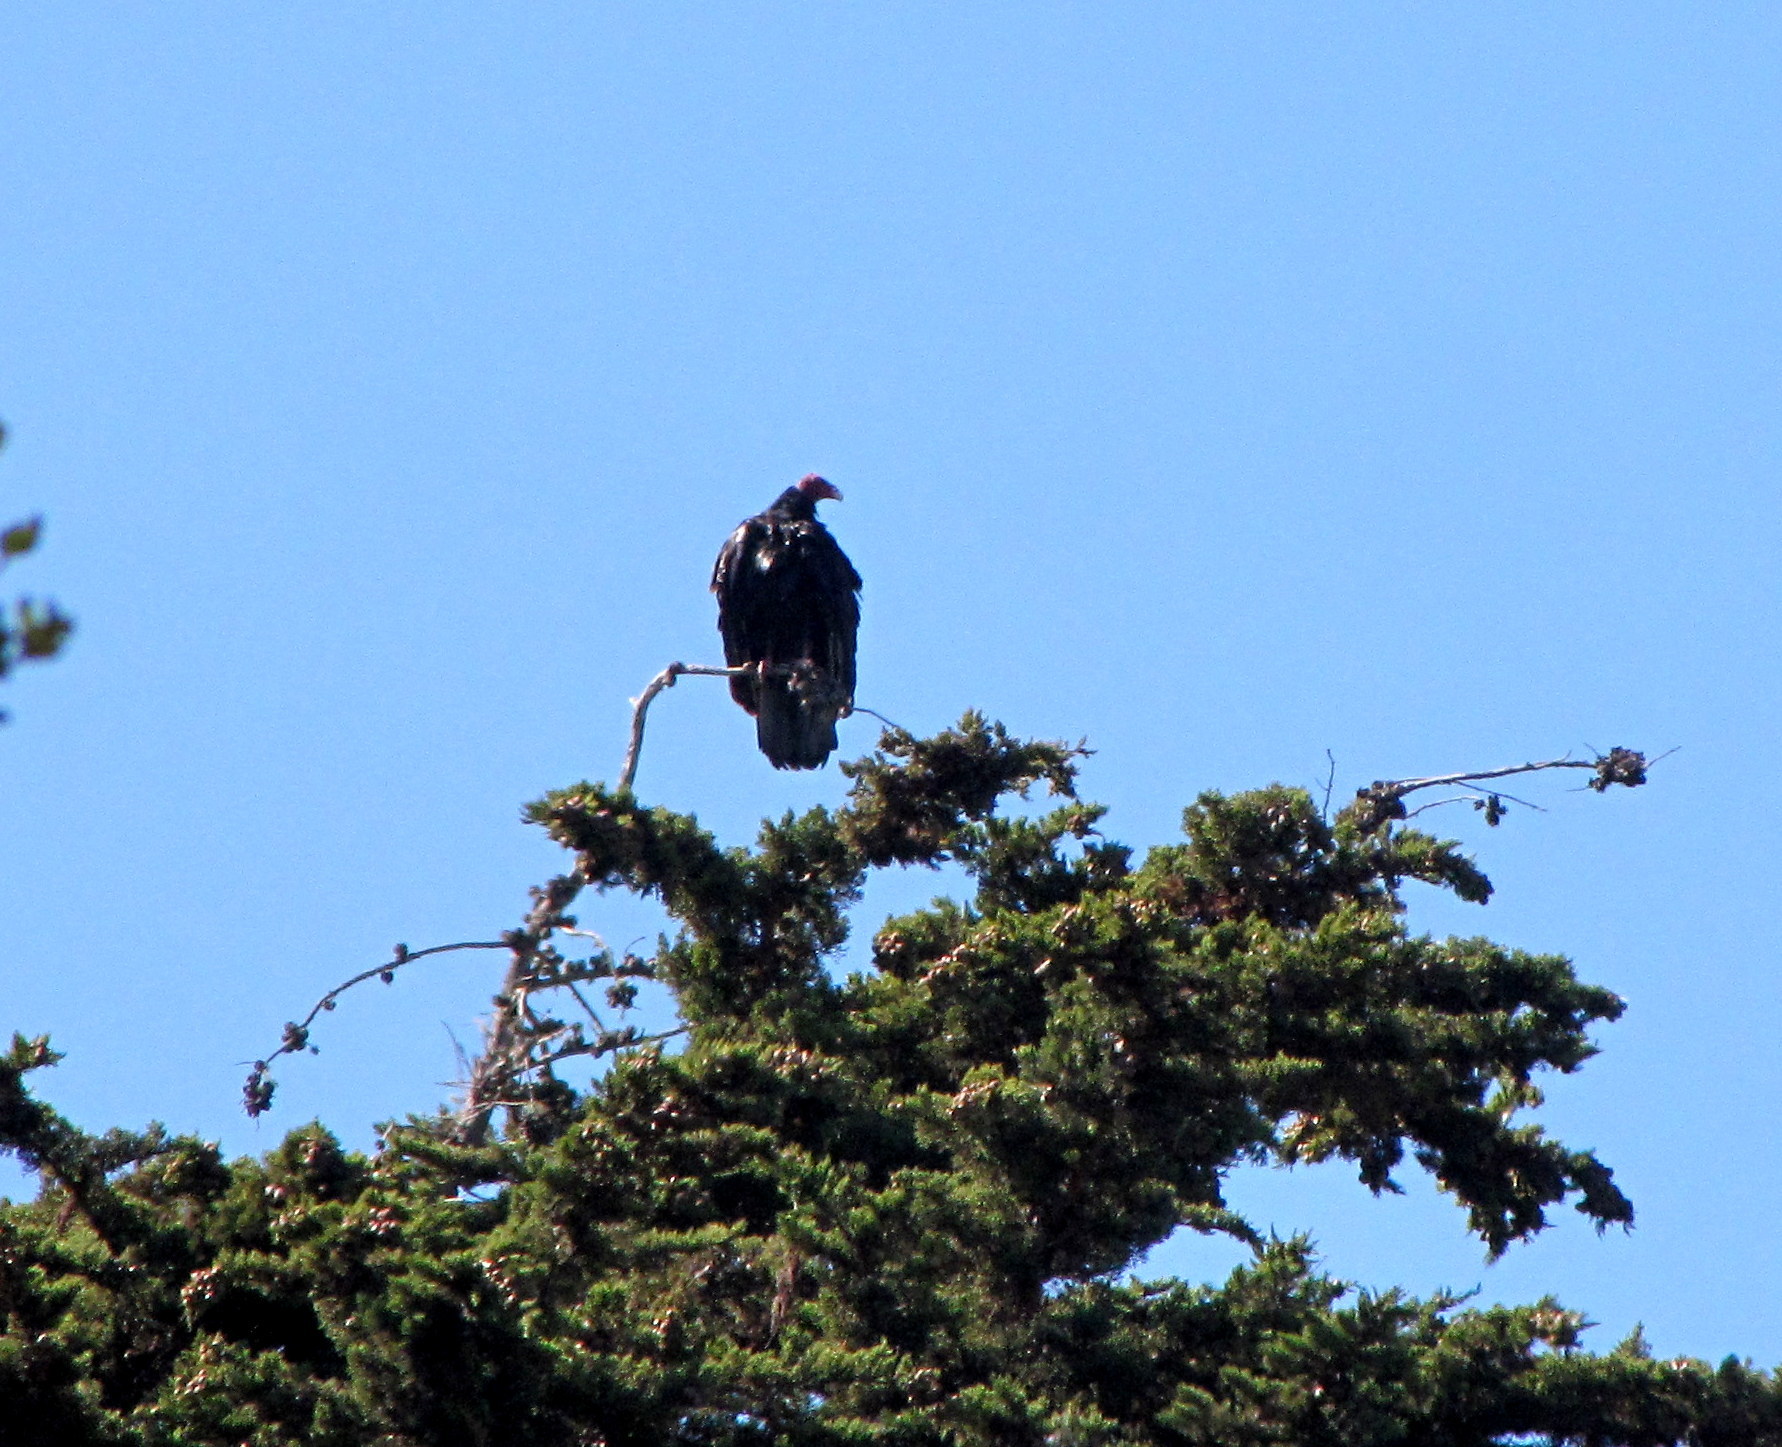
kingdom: Animalia
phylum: Chordata
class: Aves
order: Accipitriformes
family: Cathartidae
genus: Cathartes
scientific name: Cathartes aura
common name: Turkey vulture
